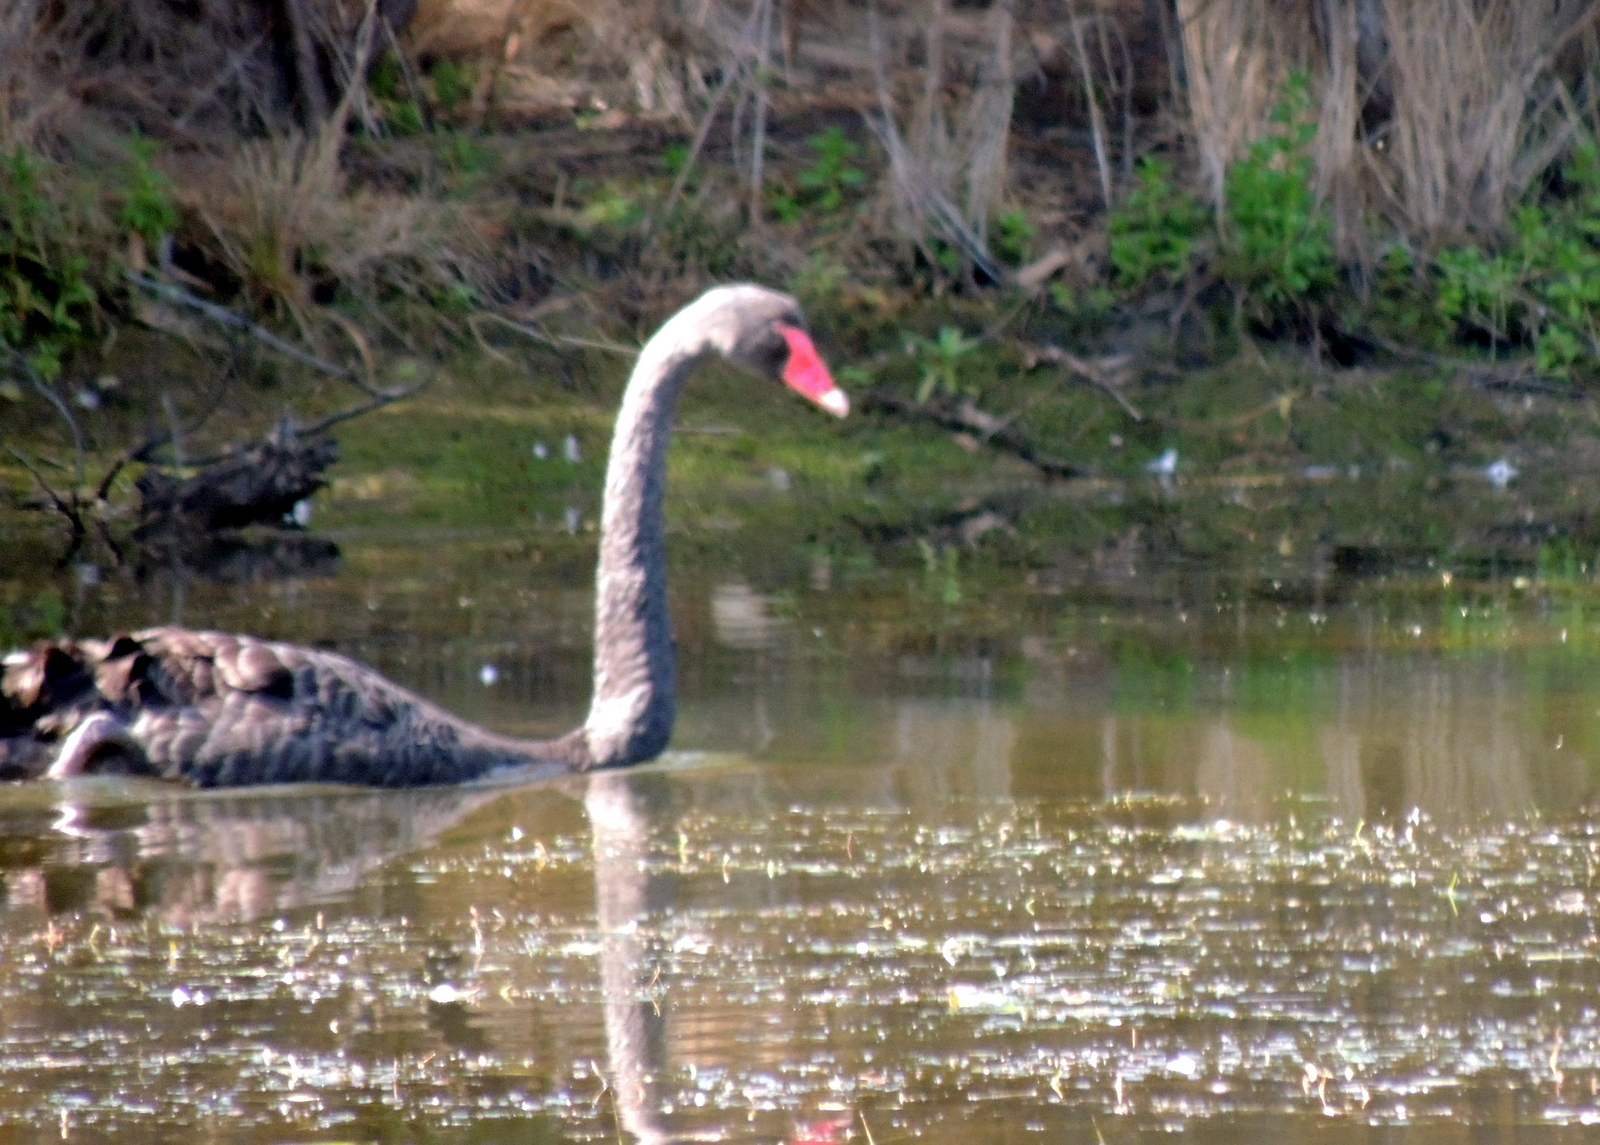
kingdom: Animalia
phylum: Chordata
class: Aves
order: Anseriformes
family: Anatidae
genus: Cygnus
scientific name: Cygnus atratus
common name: Black swan
